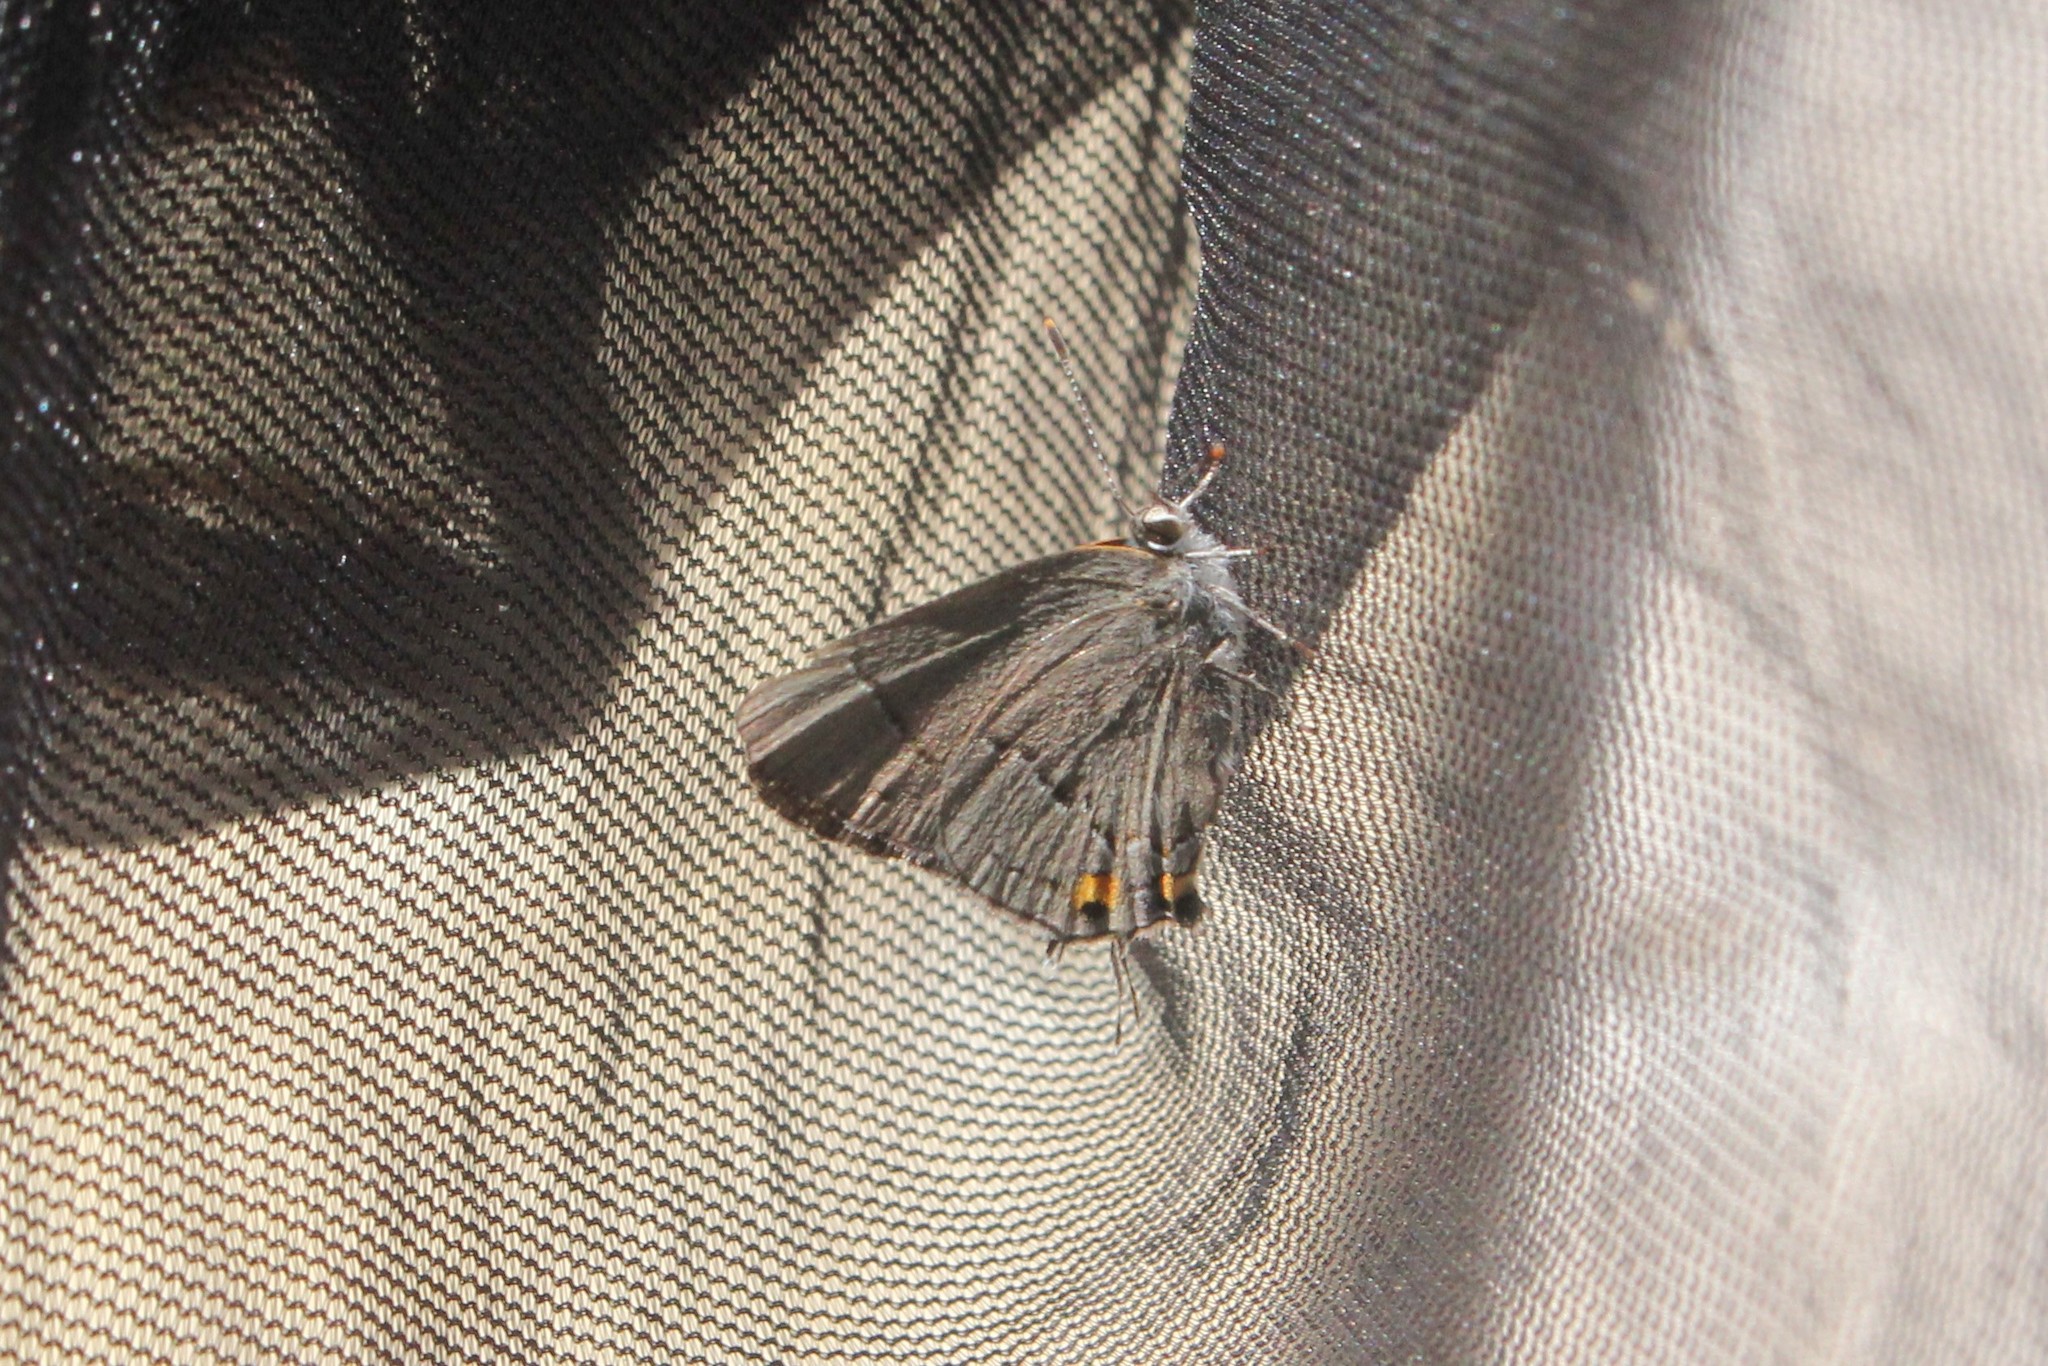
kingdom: Animalia
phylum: Arthropoda
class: Insecta
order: Lepidoptera
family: Lycaenidae
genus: Strymon
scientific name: Strymon melinus
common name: Gray hairstreak
